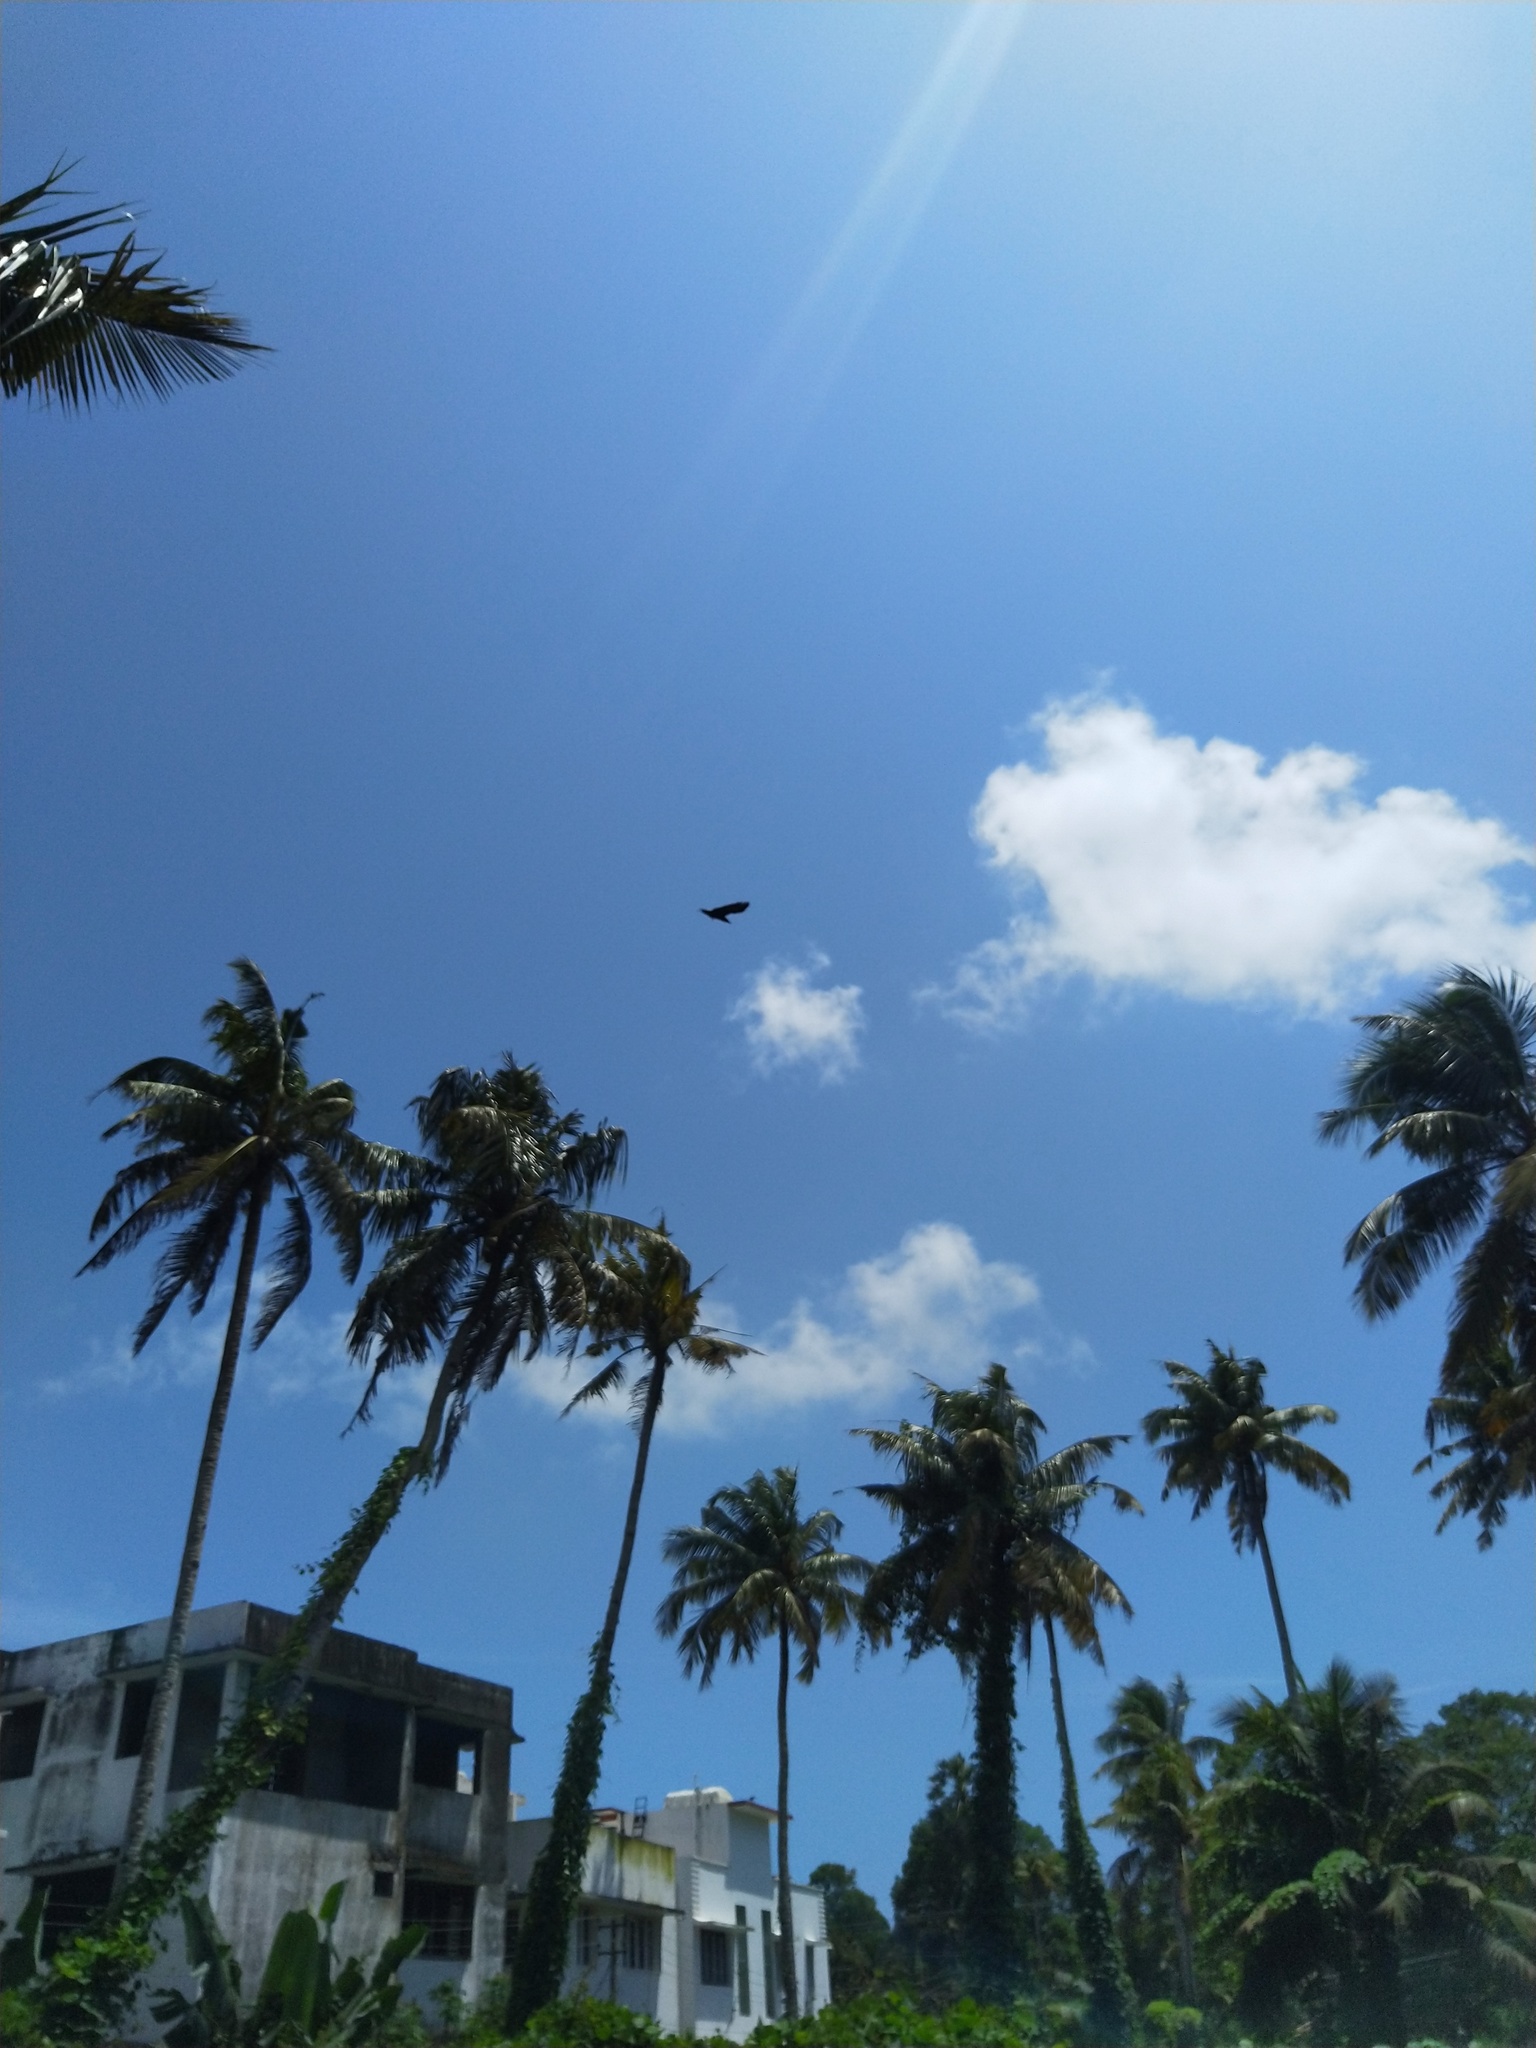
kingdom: Animalia
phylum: Chordata
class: Aves
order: Passeriformes
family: Corvidae
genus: Corvus
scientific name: Corvus splendens
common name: House crow
